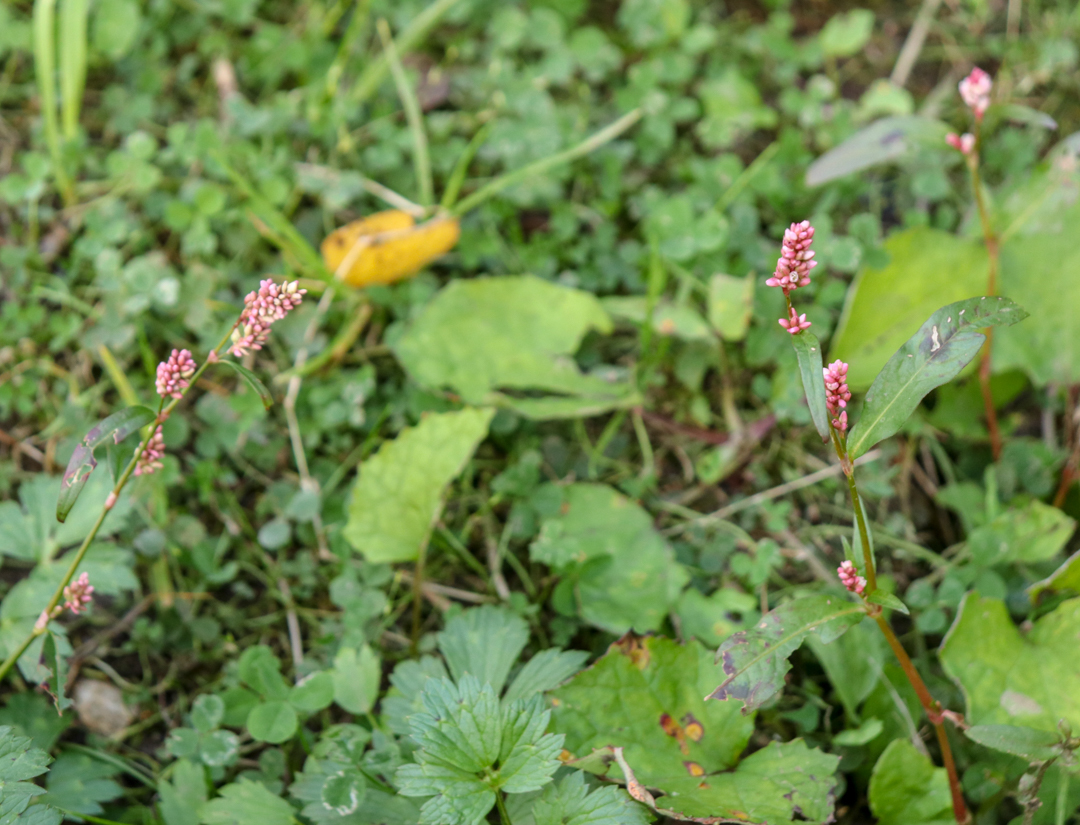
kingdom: Plantae
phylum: Tracheophyta
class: Magnoliopsida
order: Caryophyllales
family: Polygonaceae
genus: Persicaria
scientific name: Persicaria maculosa
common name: Redshank
